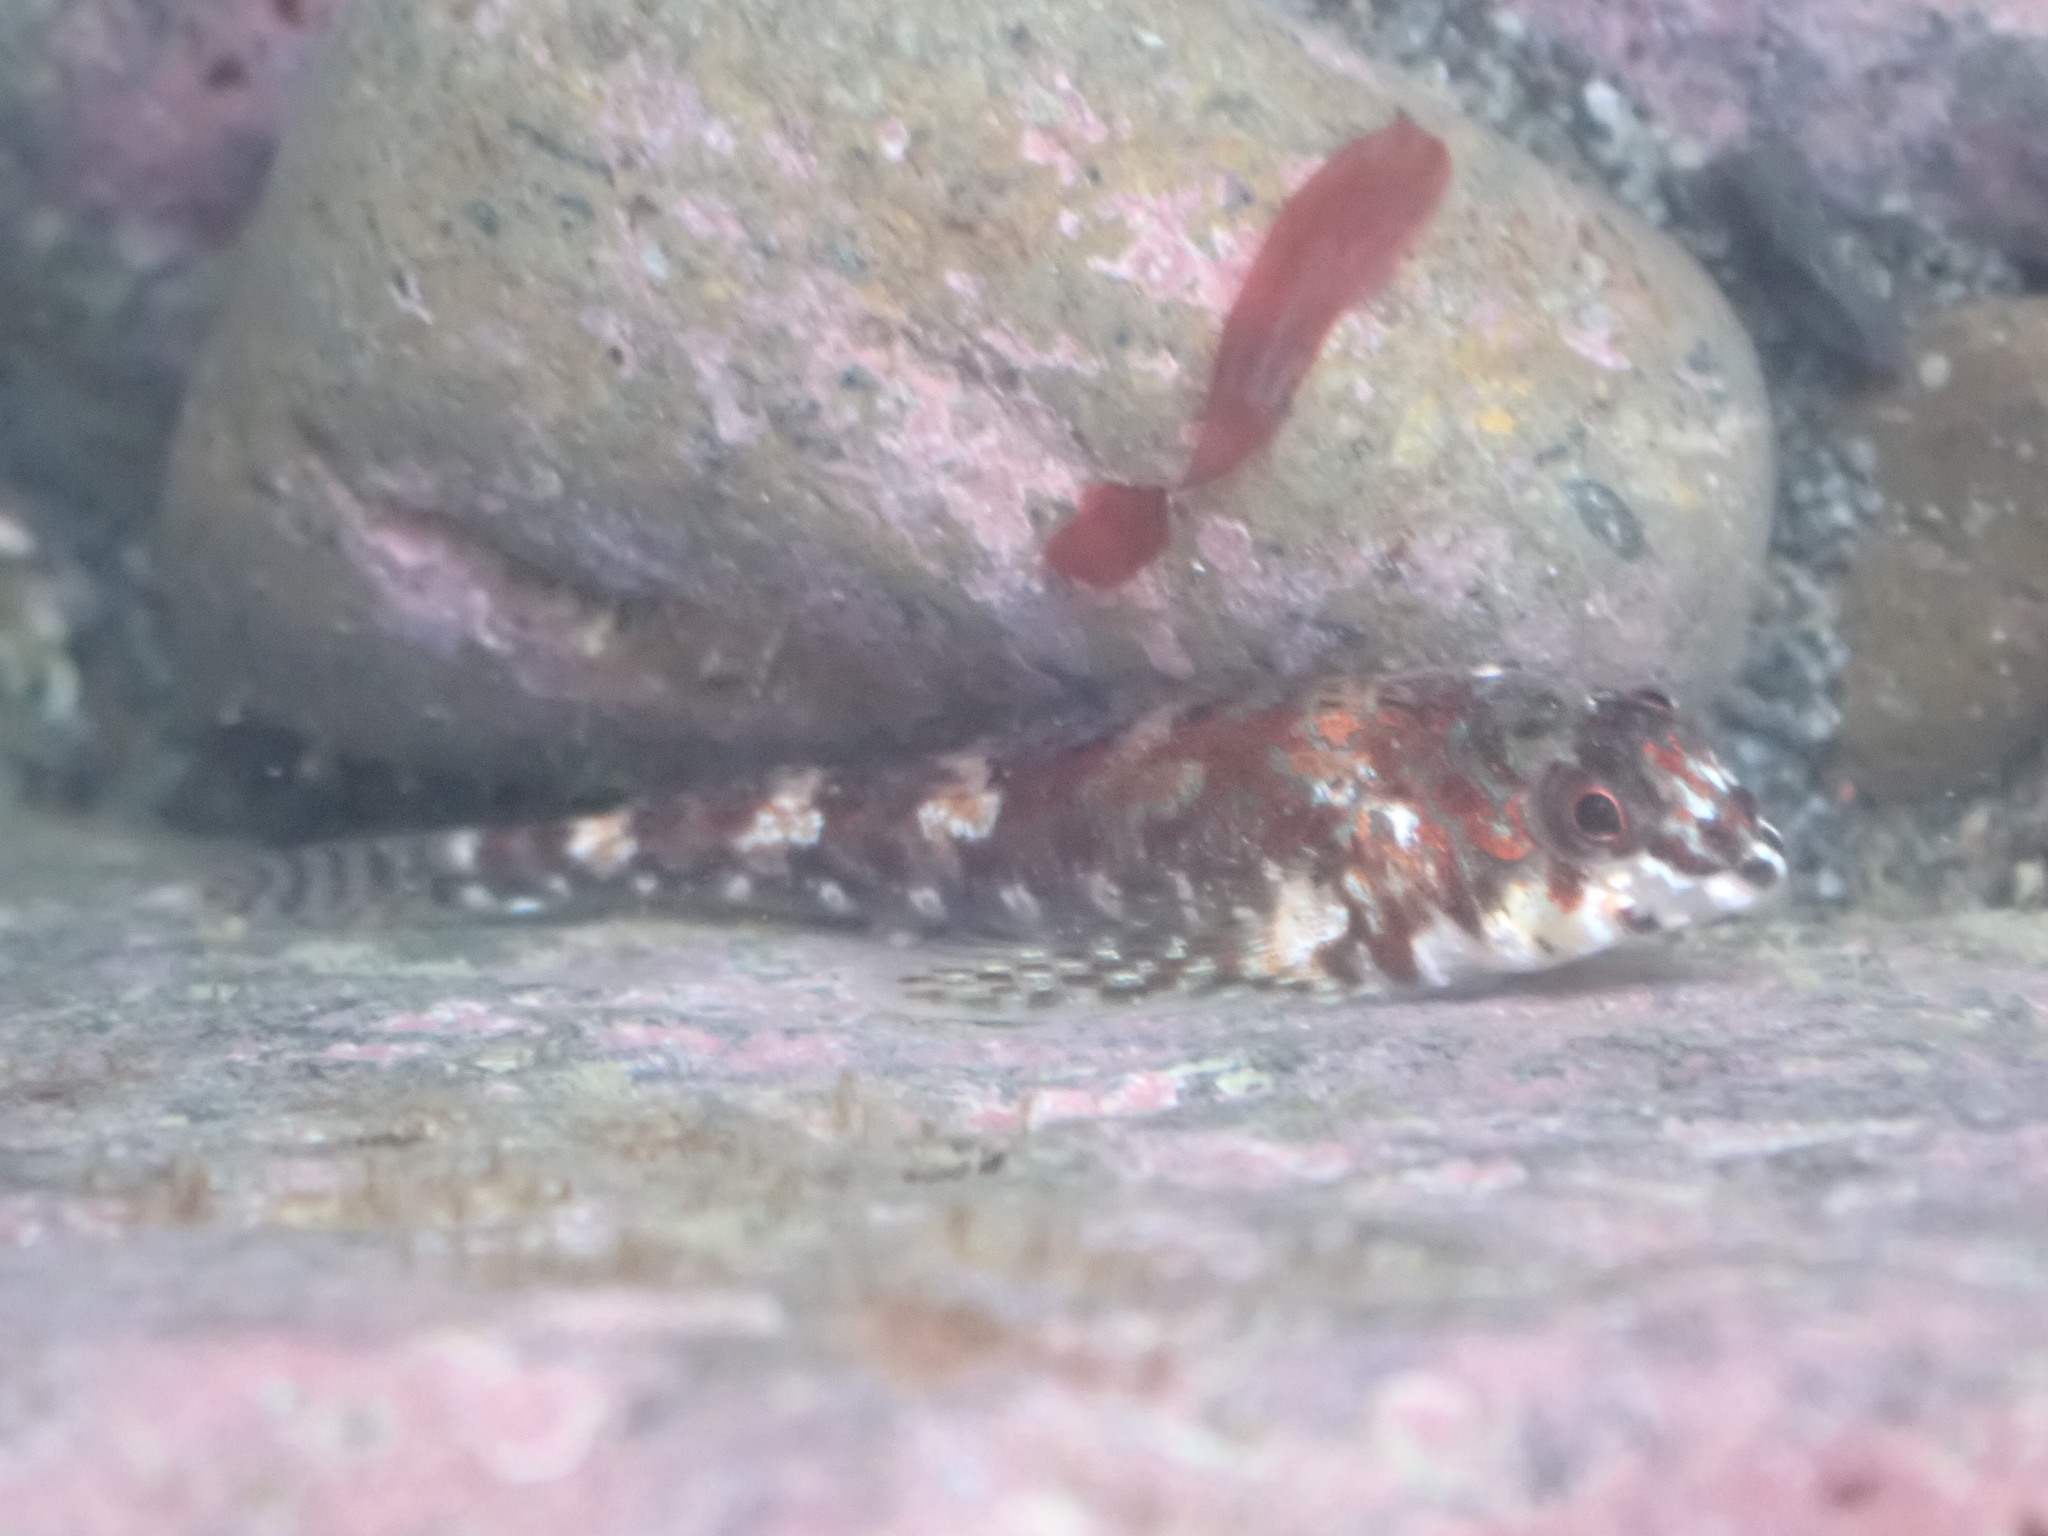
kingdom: Animalia
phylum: Chordata
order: Perciformes
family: Tripterygiidae
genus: Bellapiscis
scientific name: Bellapiscis lesleyae
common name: Mottled twister
